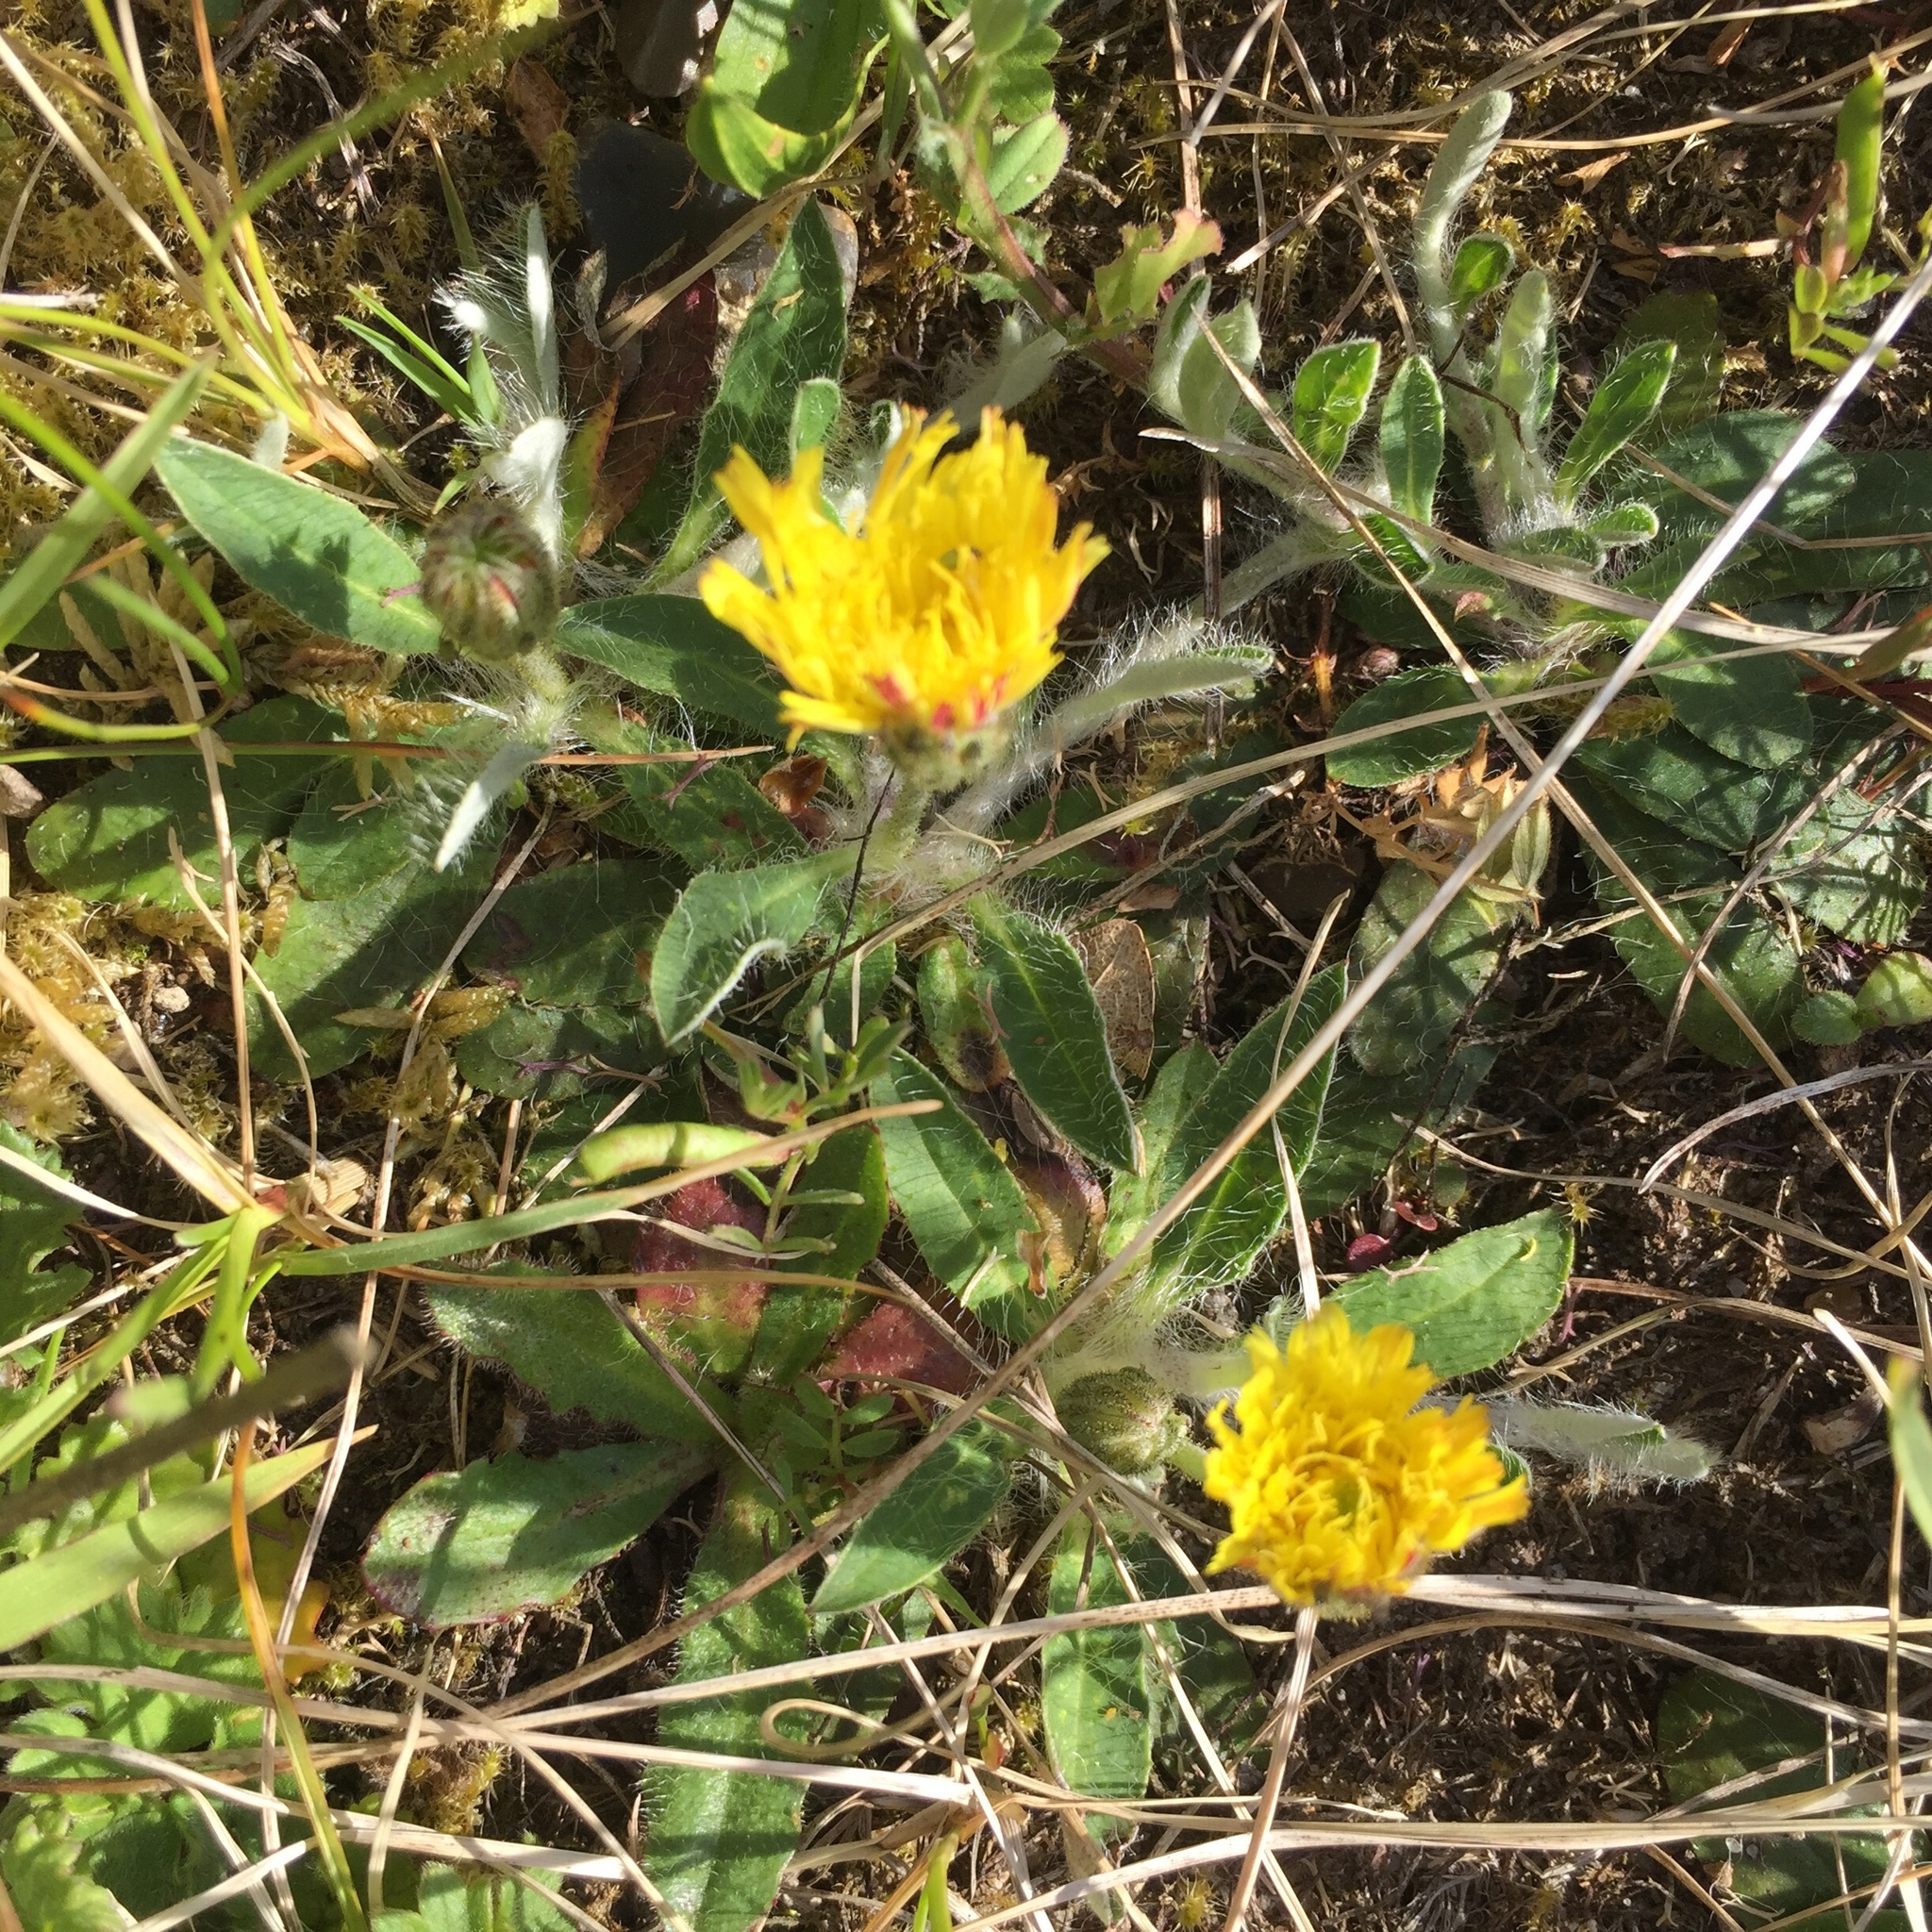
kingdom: Plantae
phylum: Tracheophyta
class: Magnoliopsida
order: Asterales
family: Asteraceae
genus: Pilosella
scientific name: Pilosella officinarum
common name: Mouse-ear hawkweed
